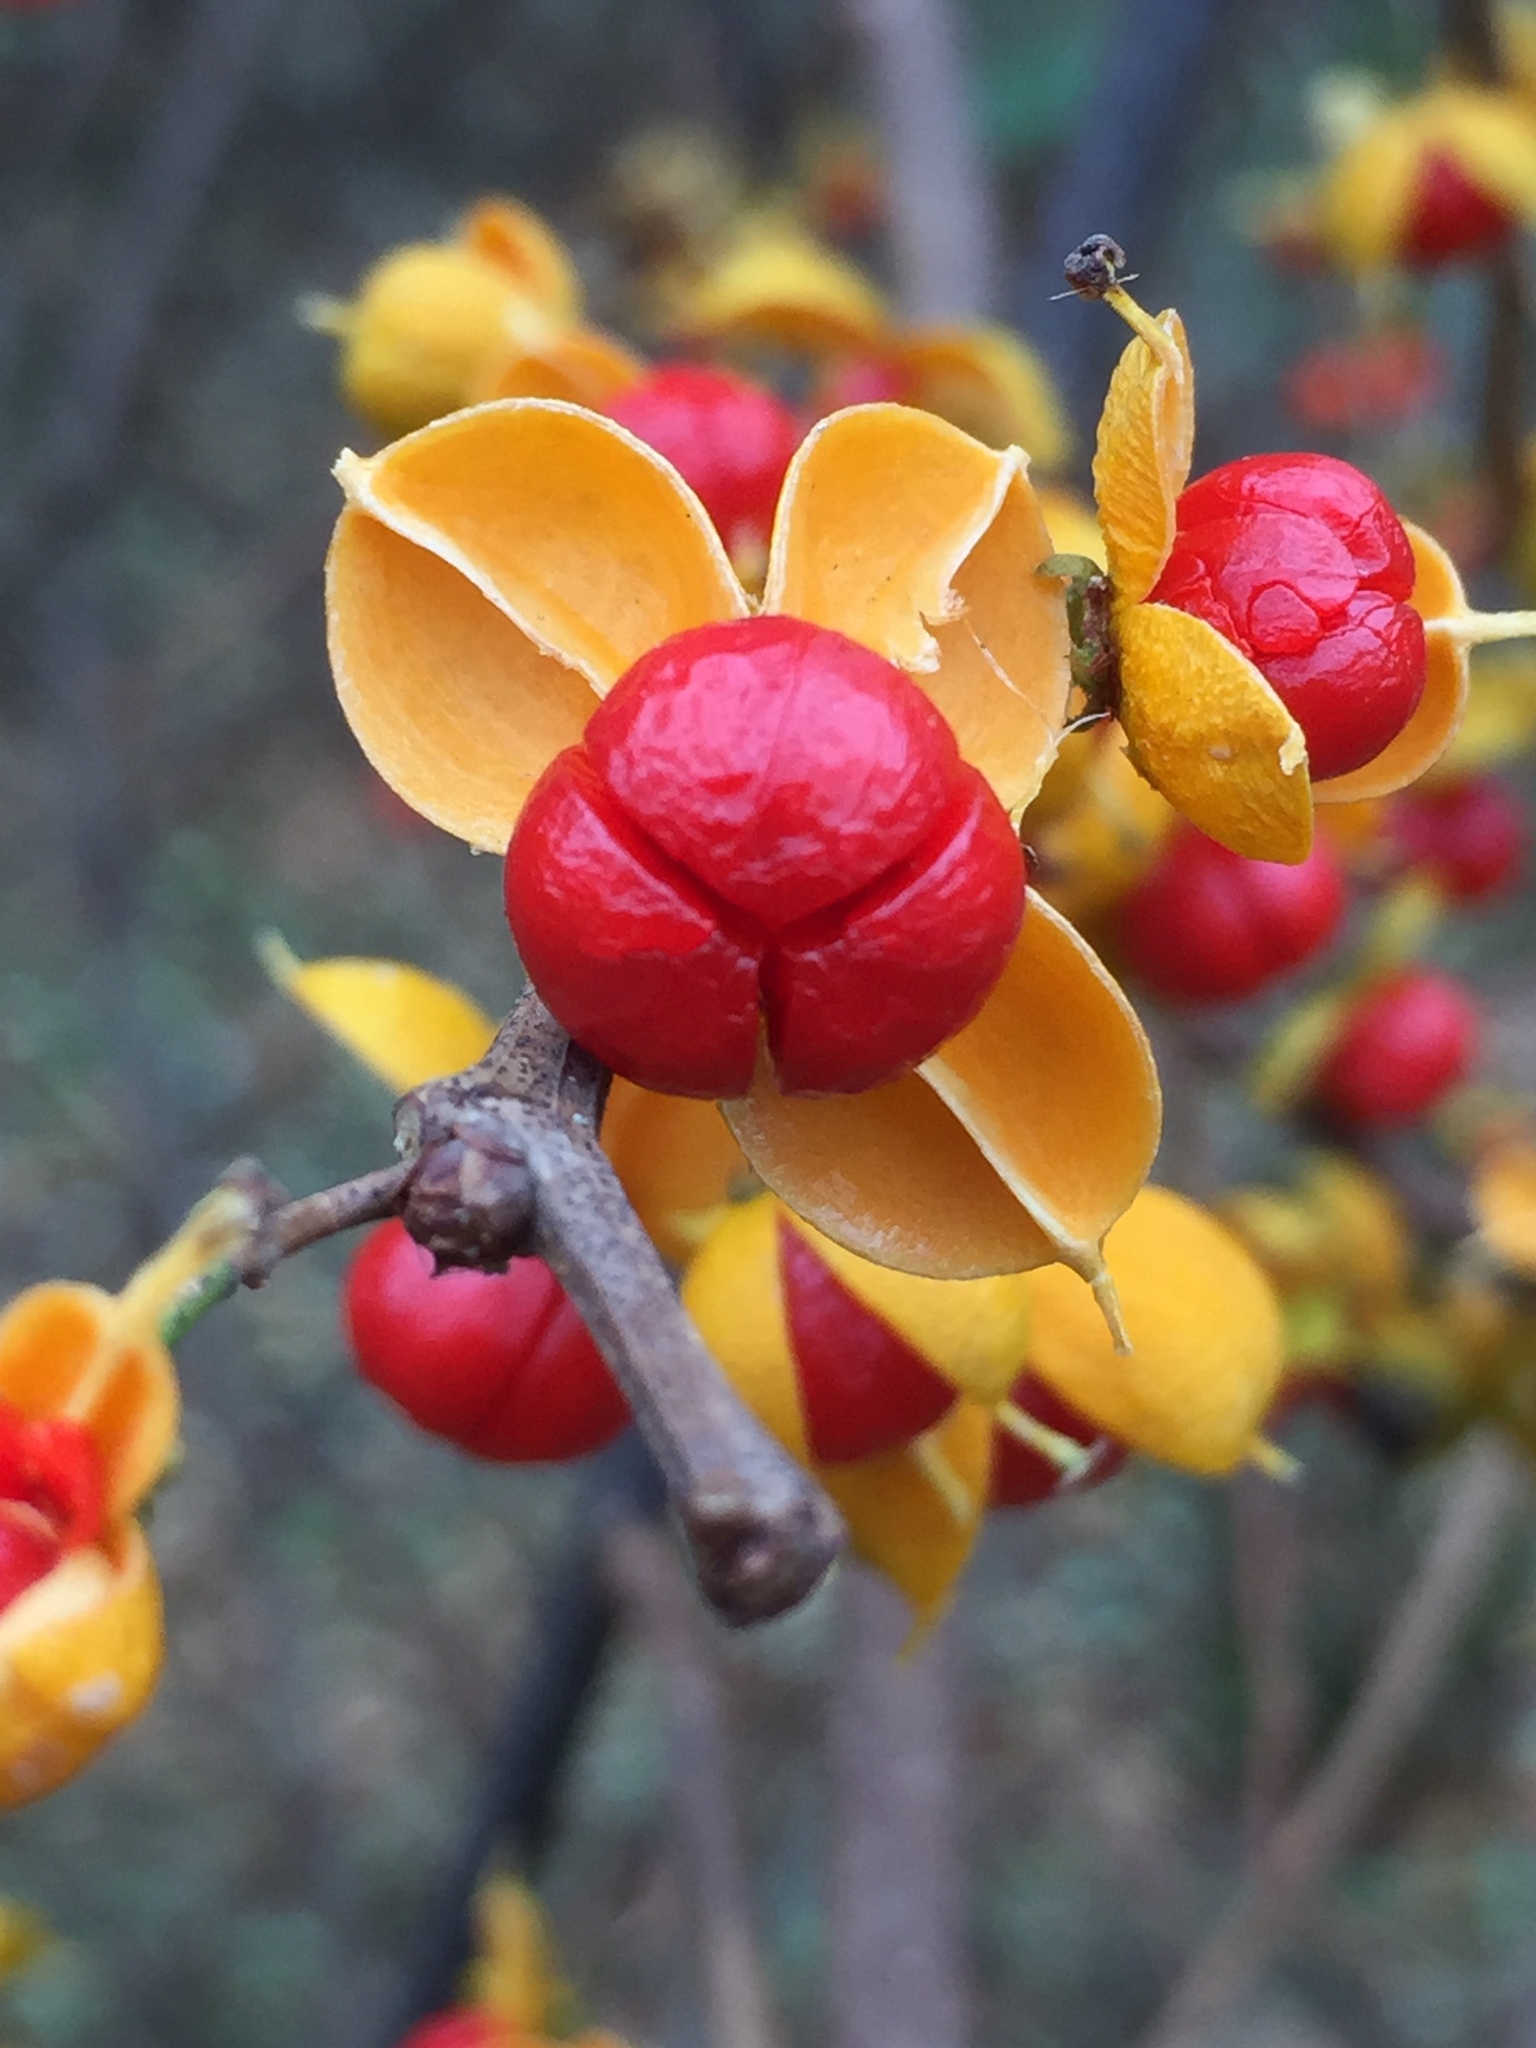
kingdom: Plantae
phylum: Tracheophyta
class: Magnoliopsida
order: Celastrales
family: Celastraceae
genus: Celastrus
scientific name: Celastrus orbiculatus
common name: Oriental bittersweet
